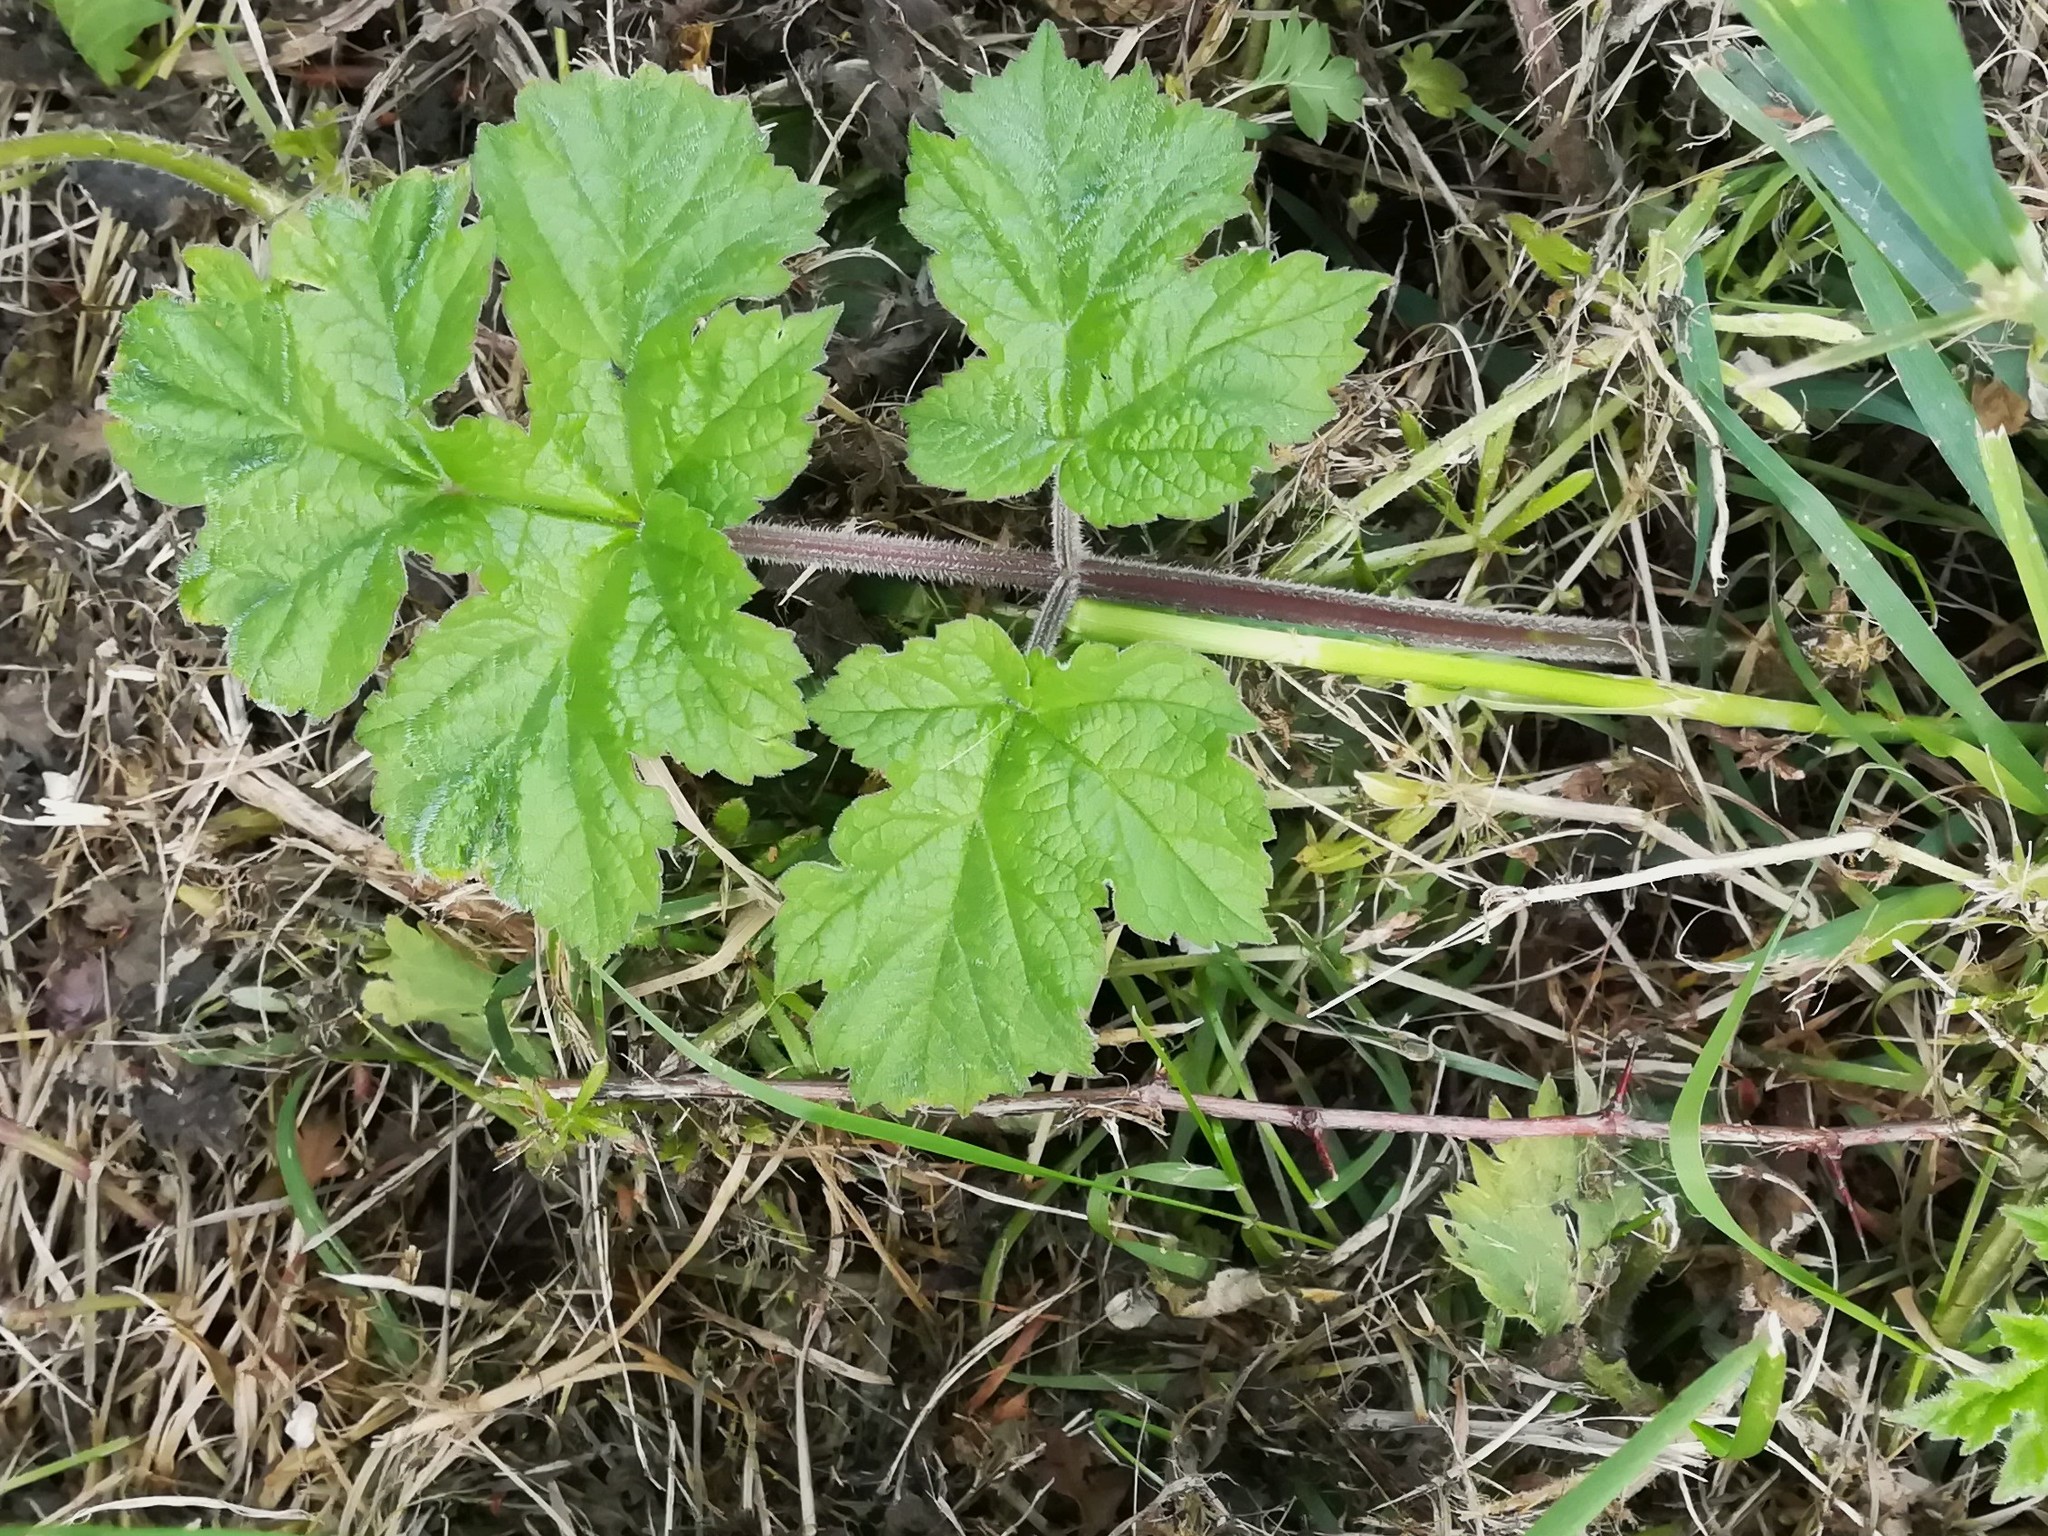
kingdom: Plantae
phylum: Tracheophyta
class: Magnoliopsida
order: Apiales
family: Apiaceae
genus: Heracleum
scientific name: Heracleum sphondylium
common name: Hogweed
